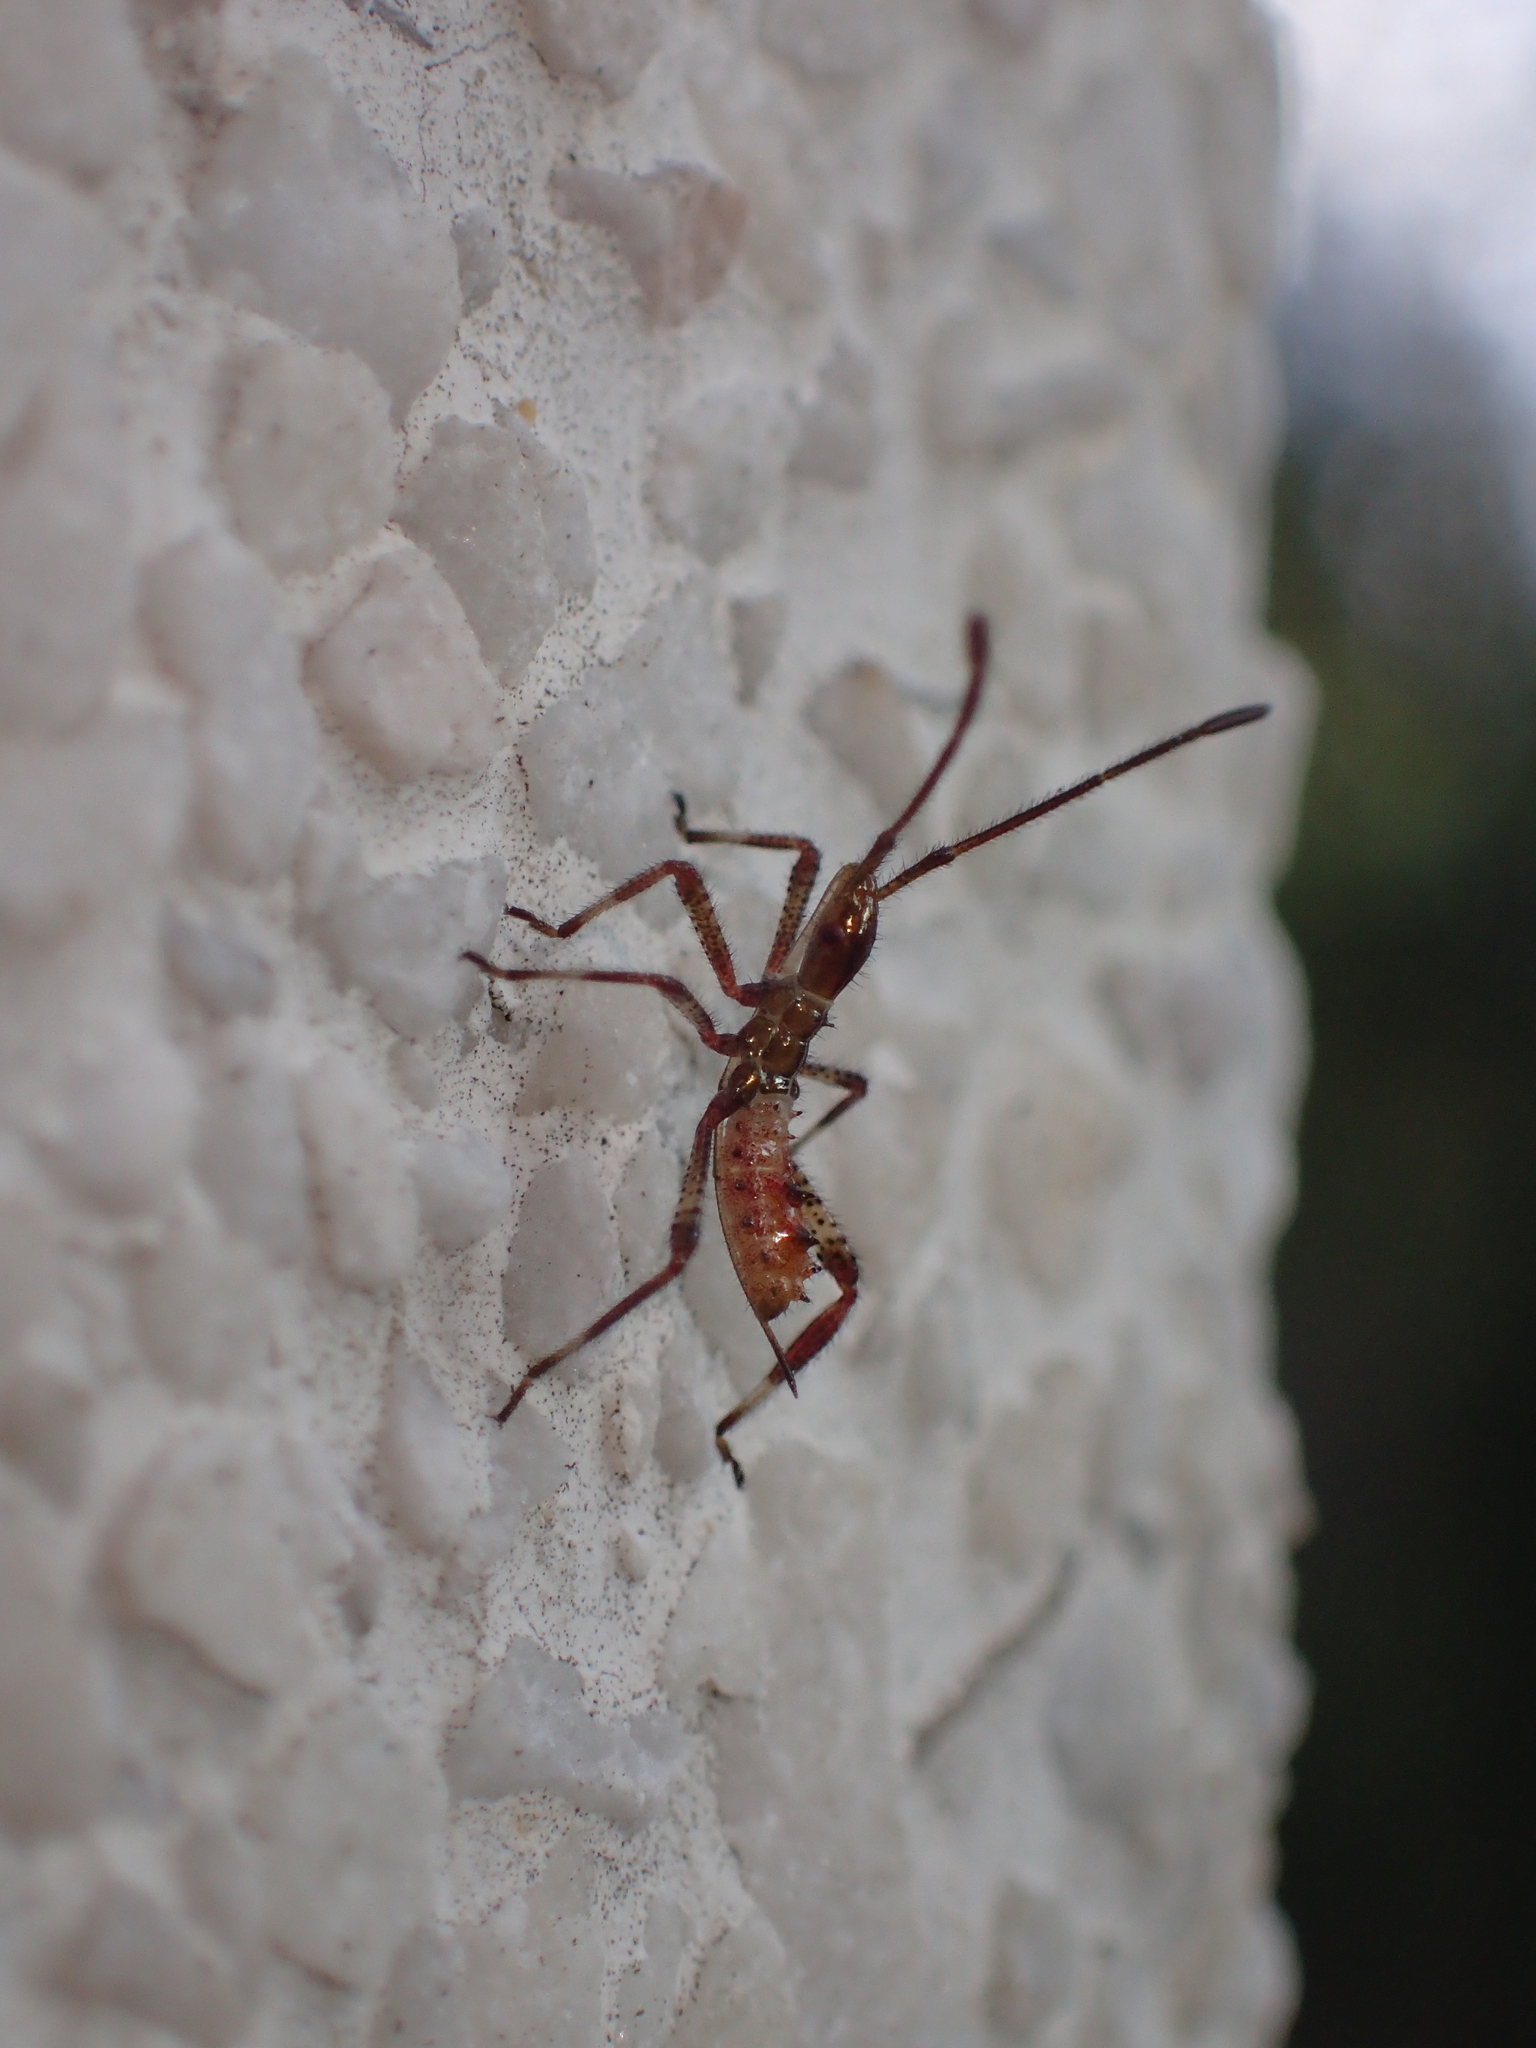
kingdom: Animalia
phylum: Arthropoda
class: Insecta
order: Hemiptera
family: Coreidae
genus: Leptoglossus
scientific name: Leptoglossus occidentalis
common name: Western conifer-seed bug
